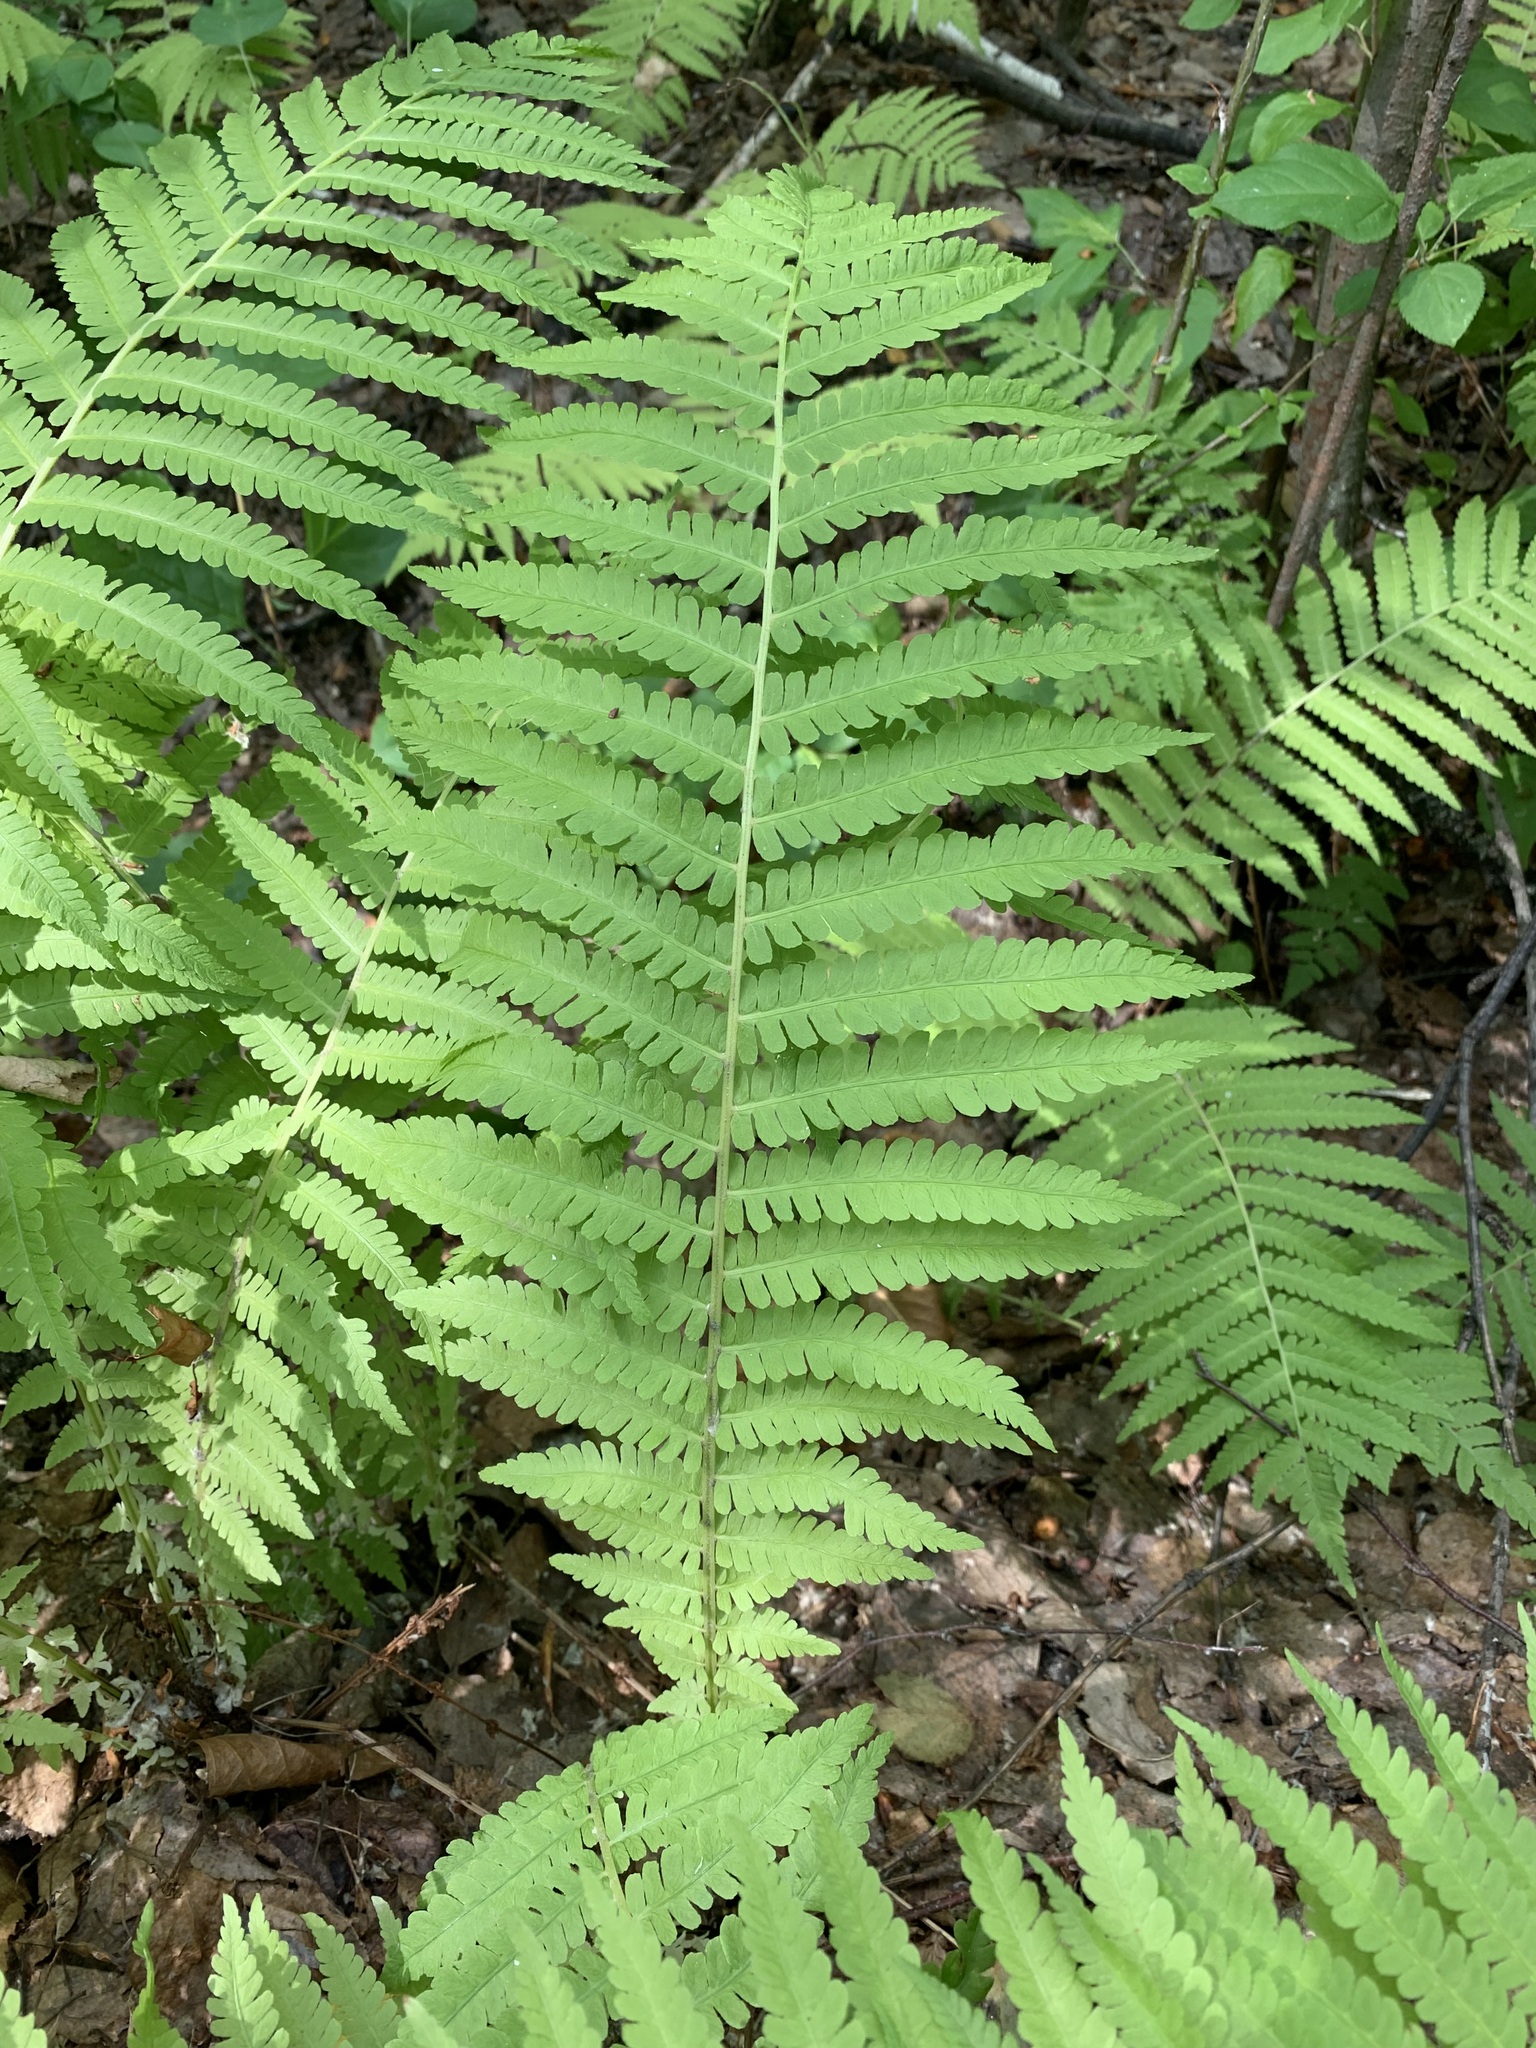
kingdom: Plantae
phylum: Tracheophyta
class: Polypodiopsida
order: Polypodiales
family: Onocleaceae
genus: Matteuccia
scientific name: Matteuccia struthiopteris
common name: Ostrich fern
